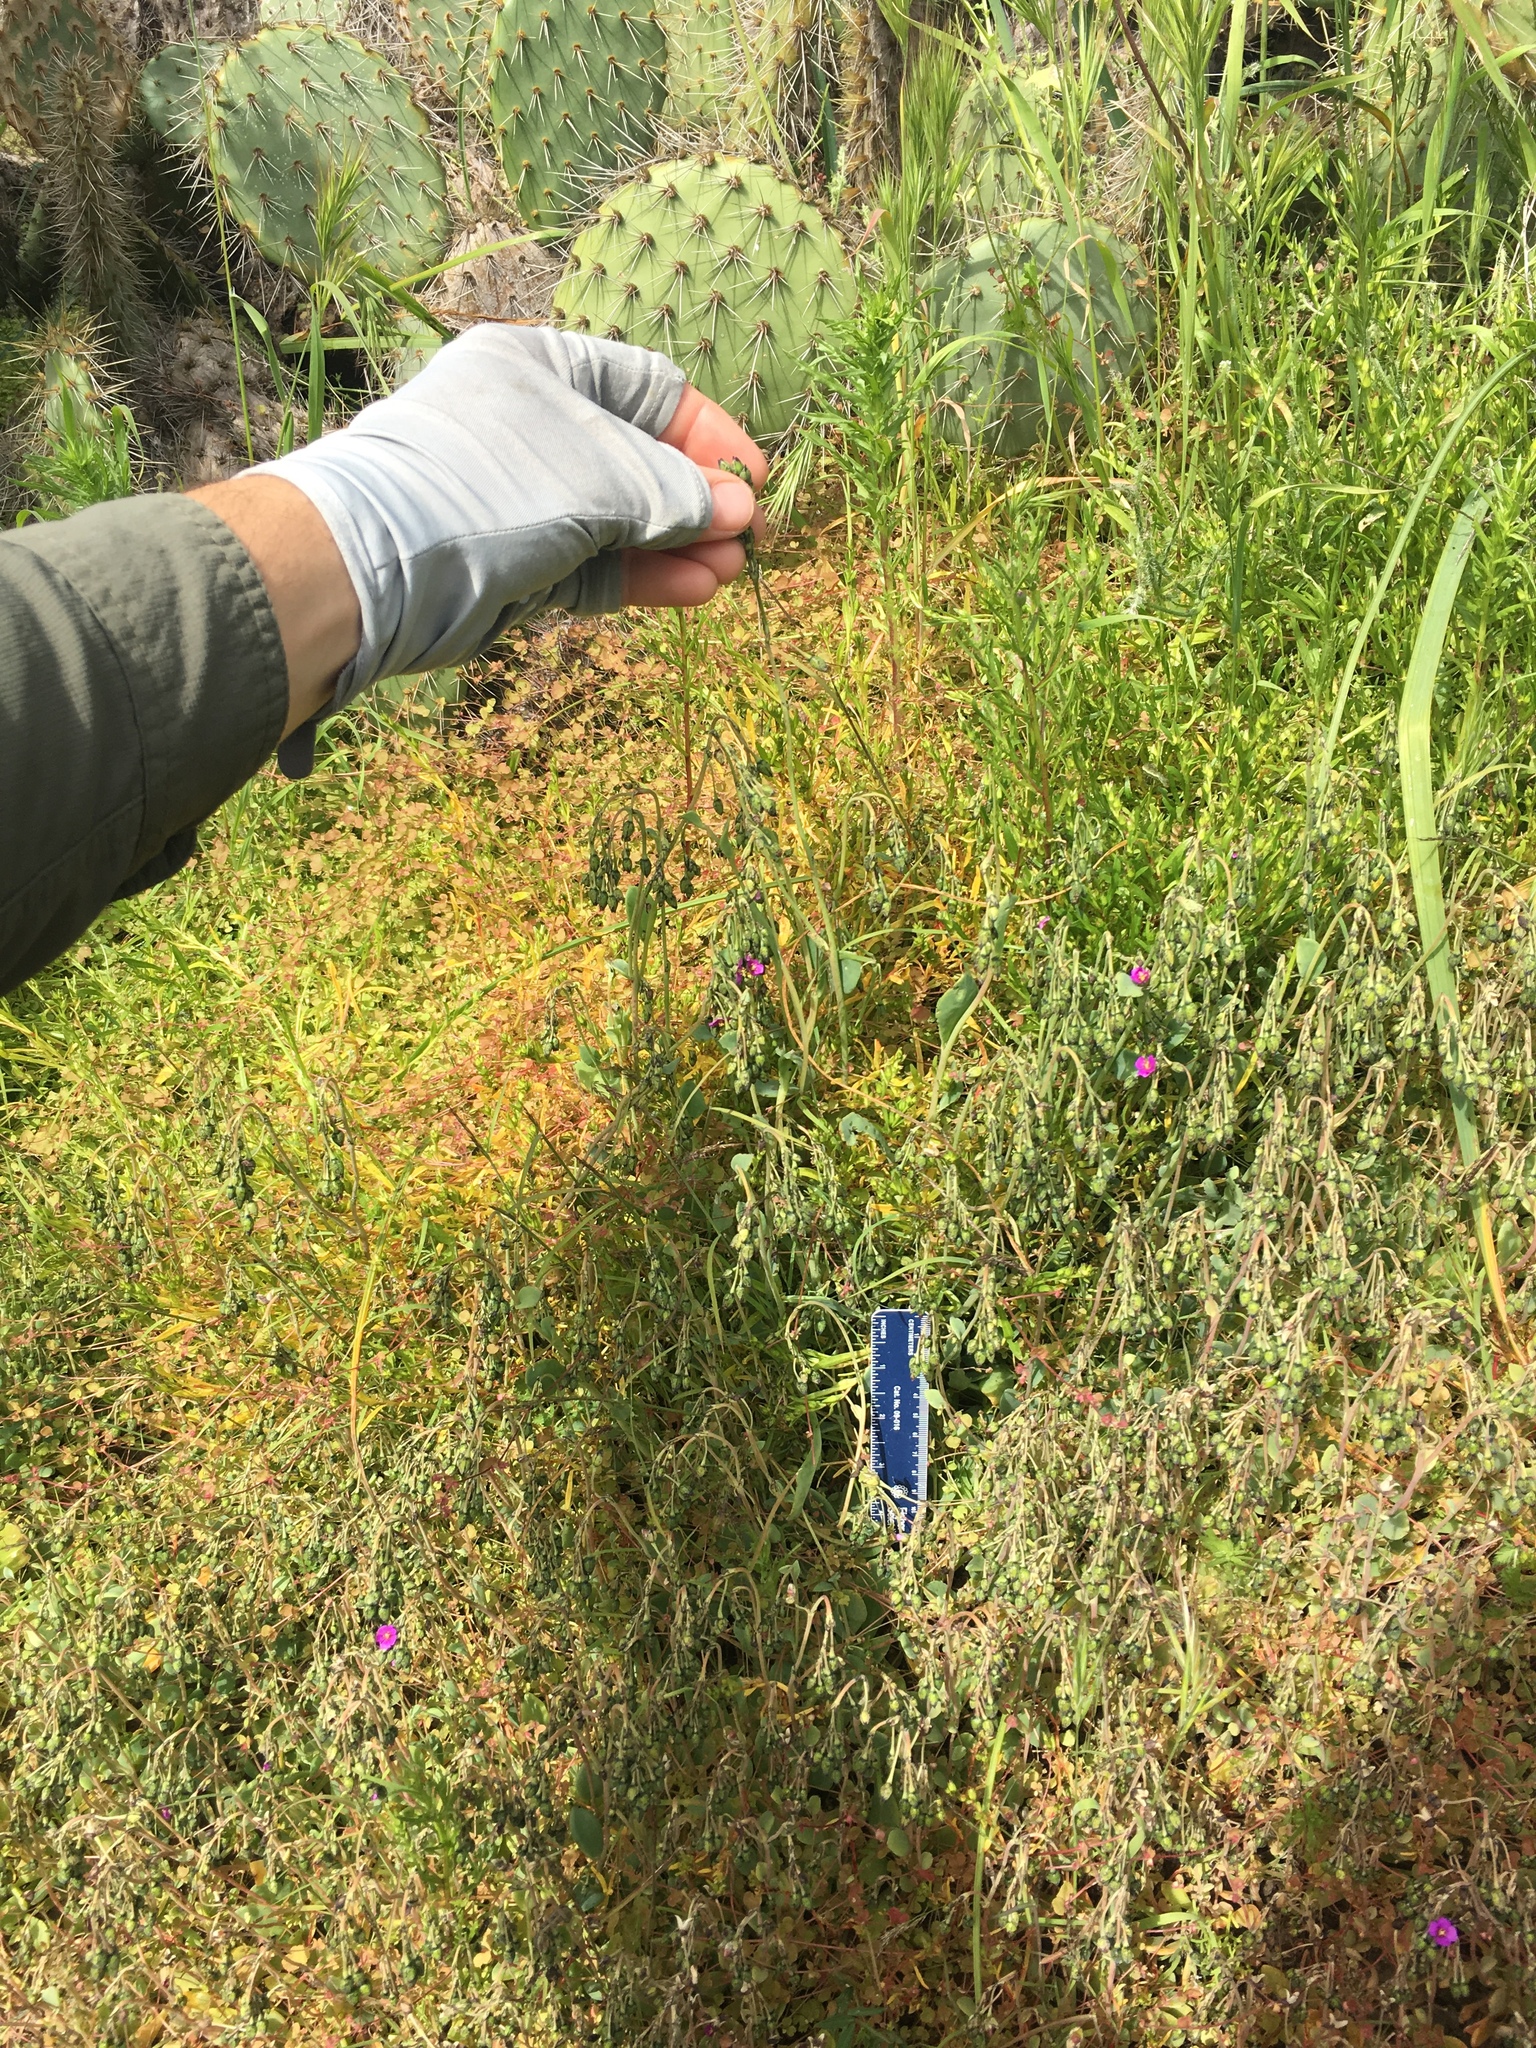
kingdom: Plantae
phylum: Tracheophyta
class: Magnoliopsida
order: Caryophyllales
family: Montiaceae
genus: Cistanthe
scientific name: Cistanthe maritima
